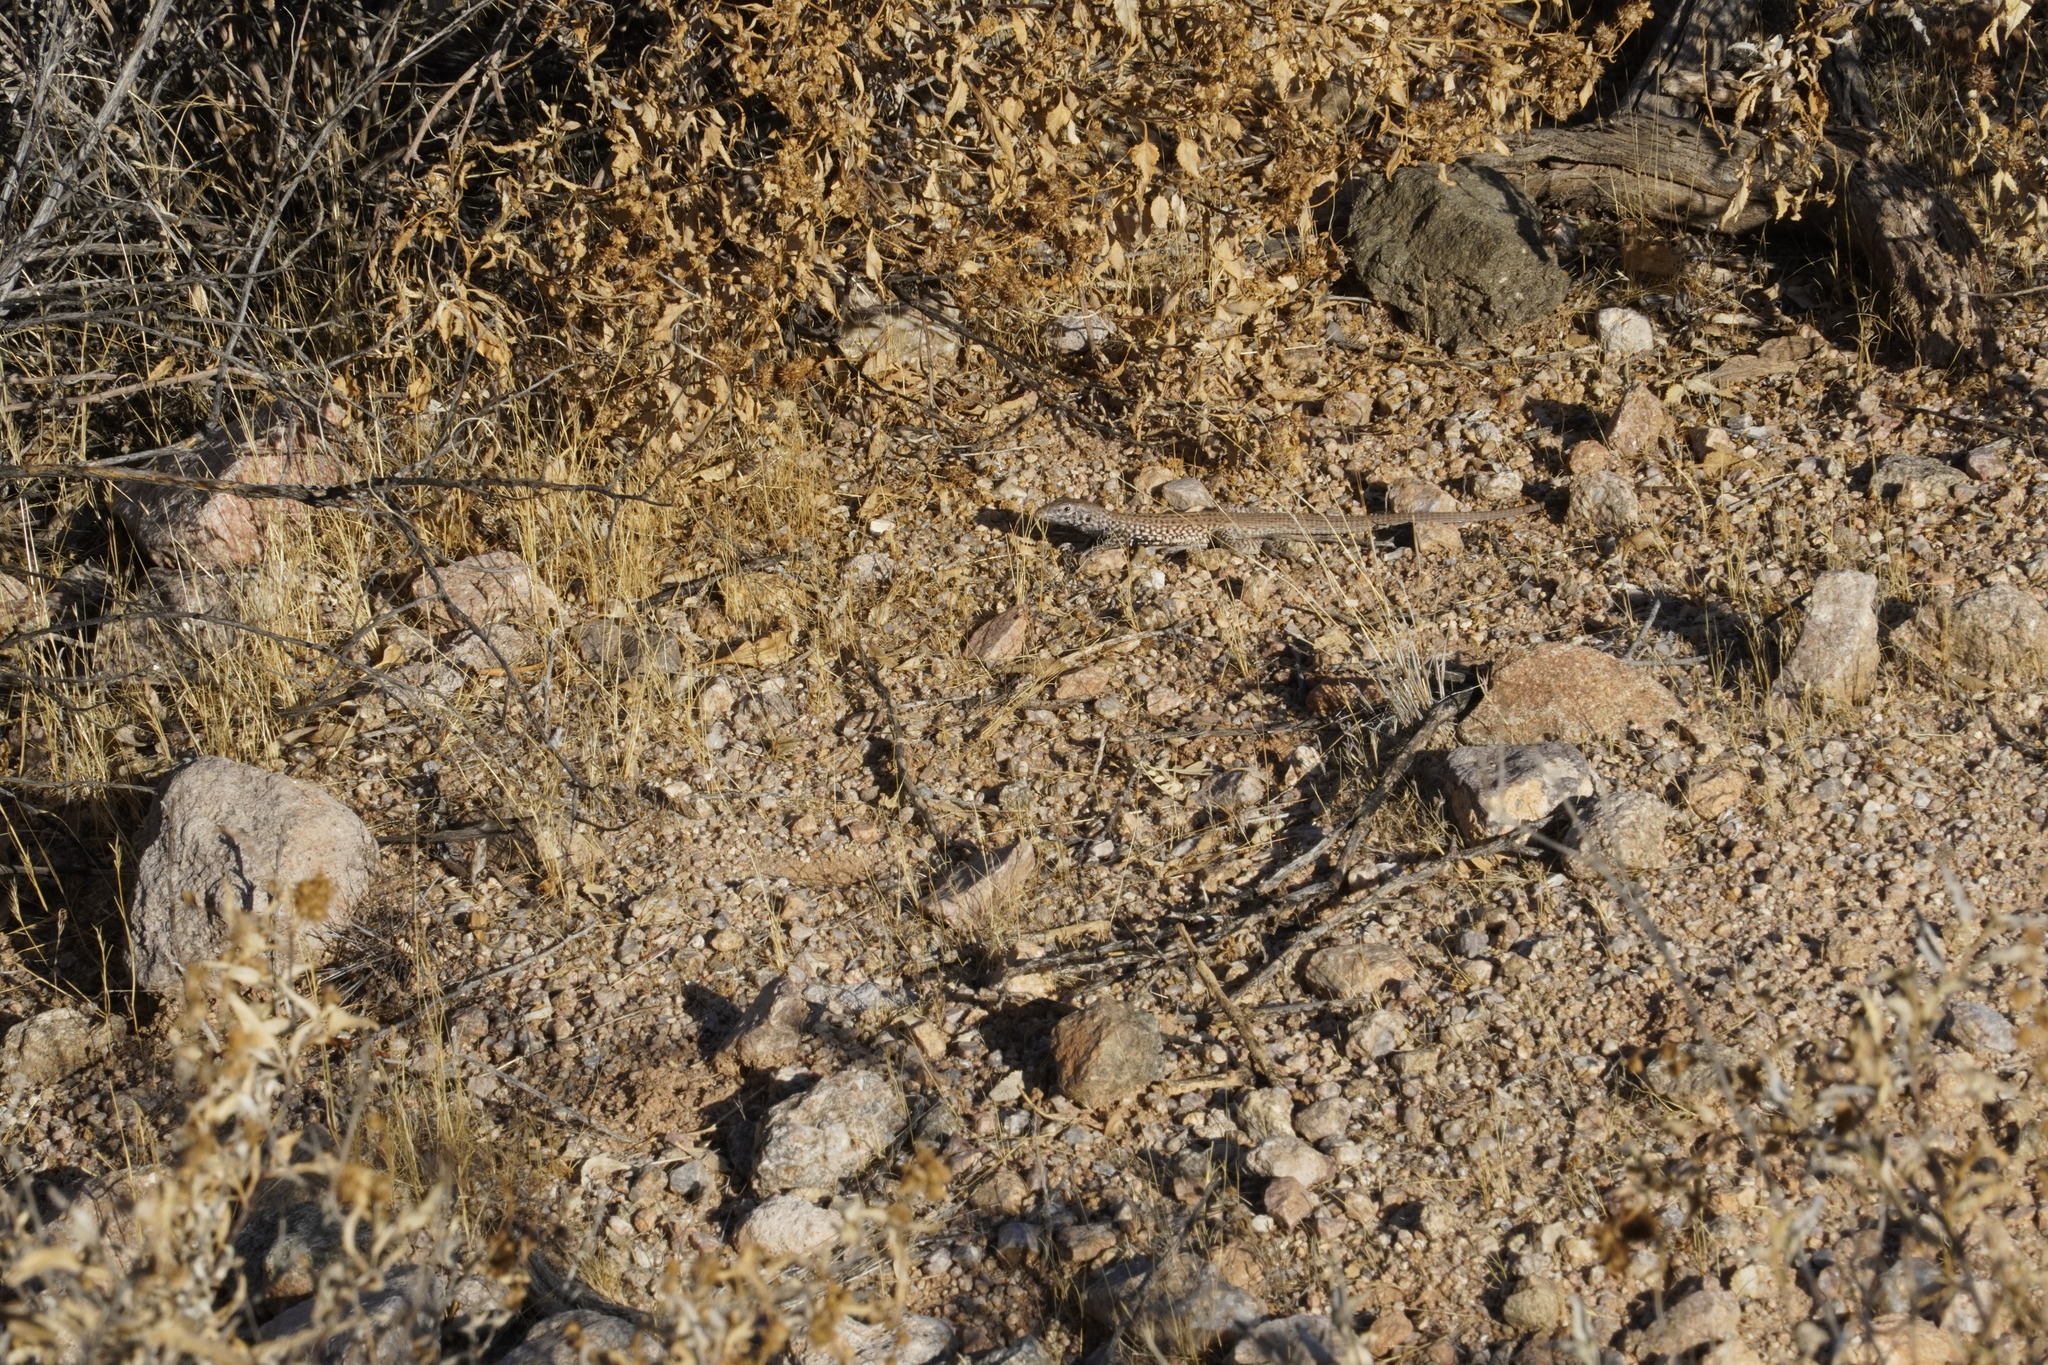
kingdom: Animalia
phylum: Chordata
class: Squamata
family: Teiidae
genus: Aspidoscelis
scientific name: Aspidoscelis tigris
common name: Tiger whiptail
